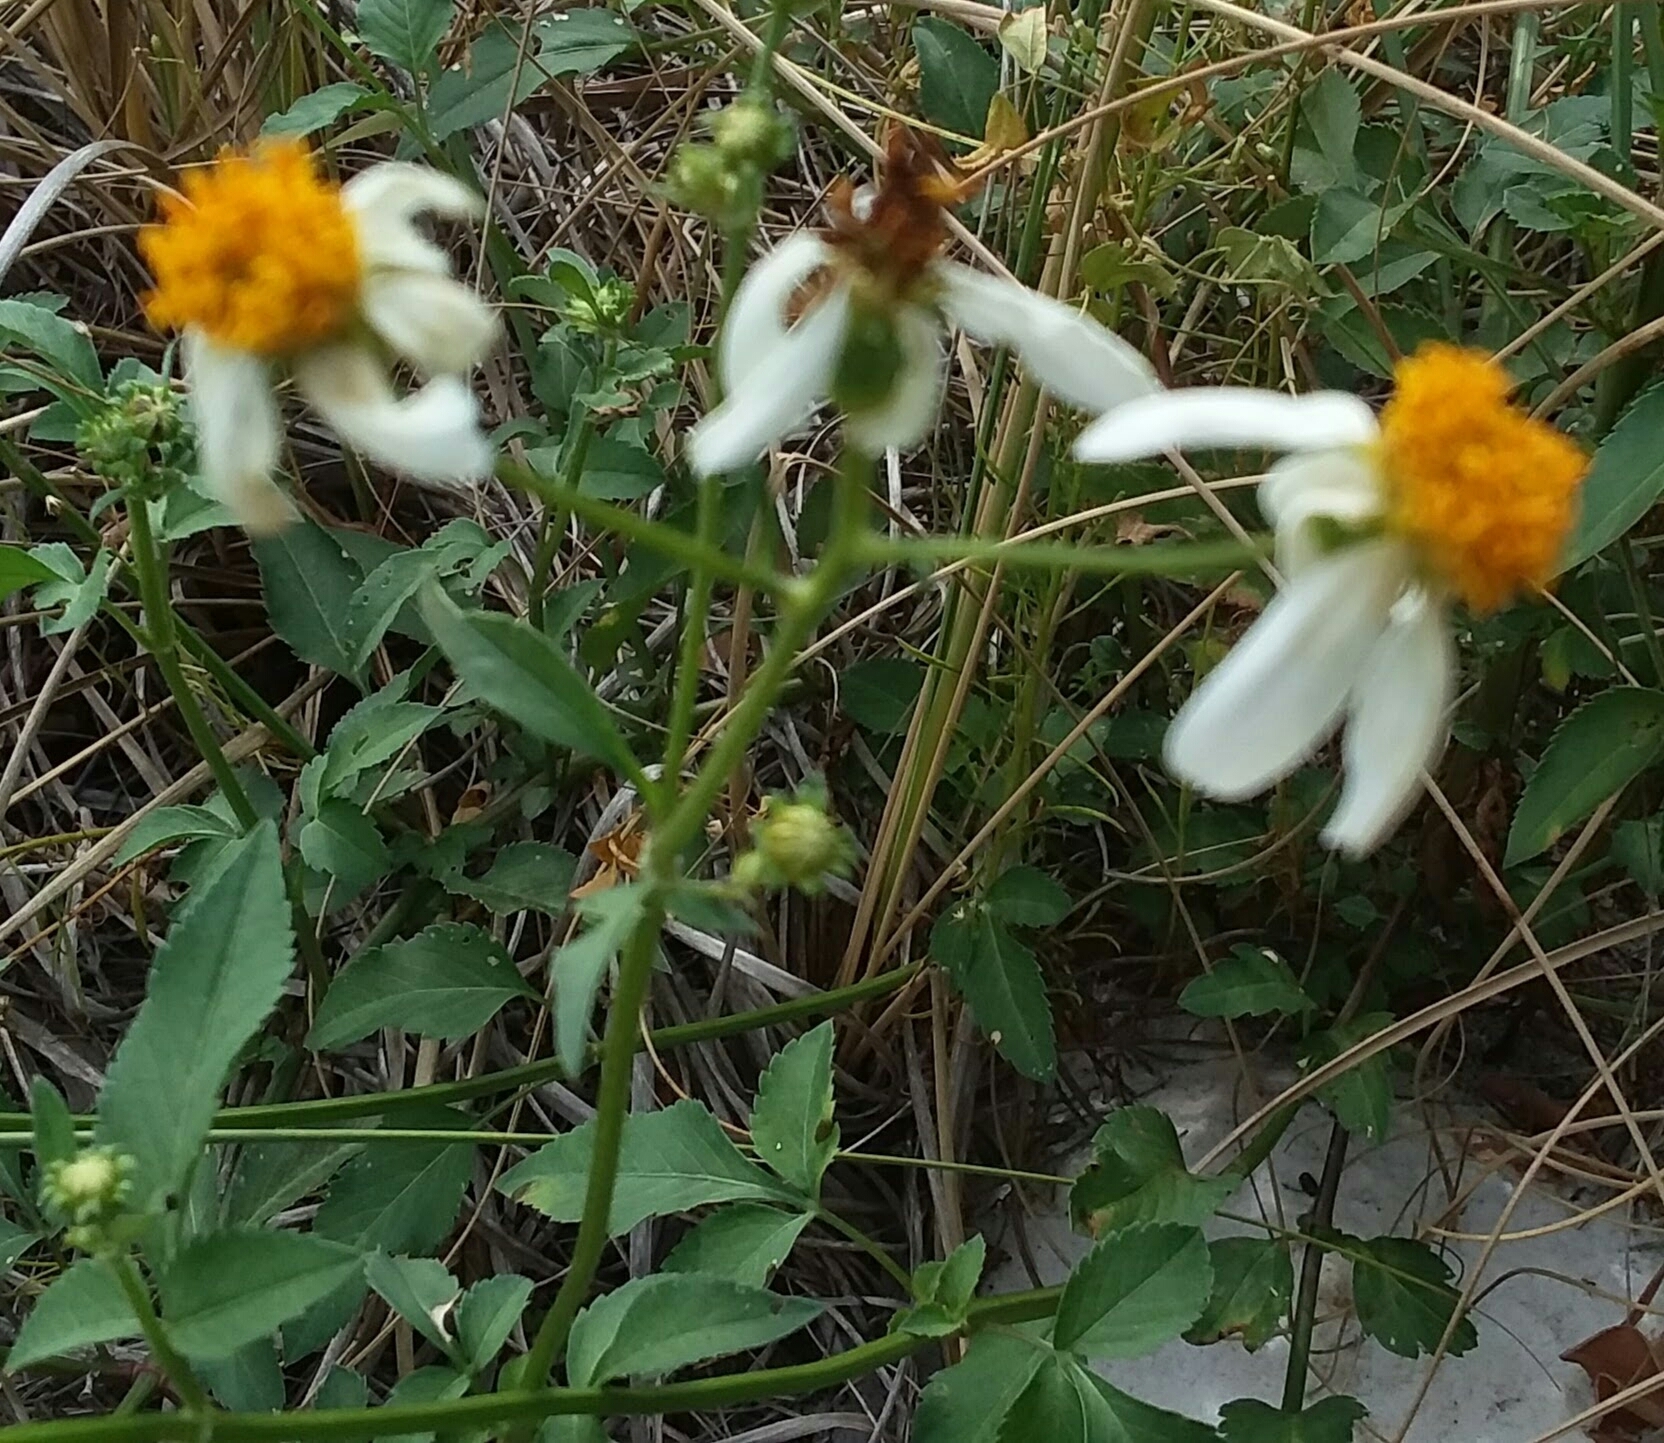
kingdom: Plantae
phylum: Tracheophyta
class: Magnoliopsida
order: Asterales
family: Asteraceae
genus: Bidens
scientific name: Bidens alba
